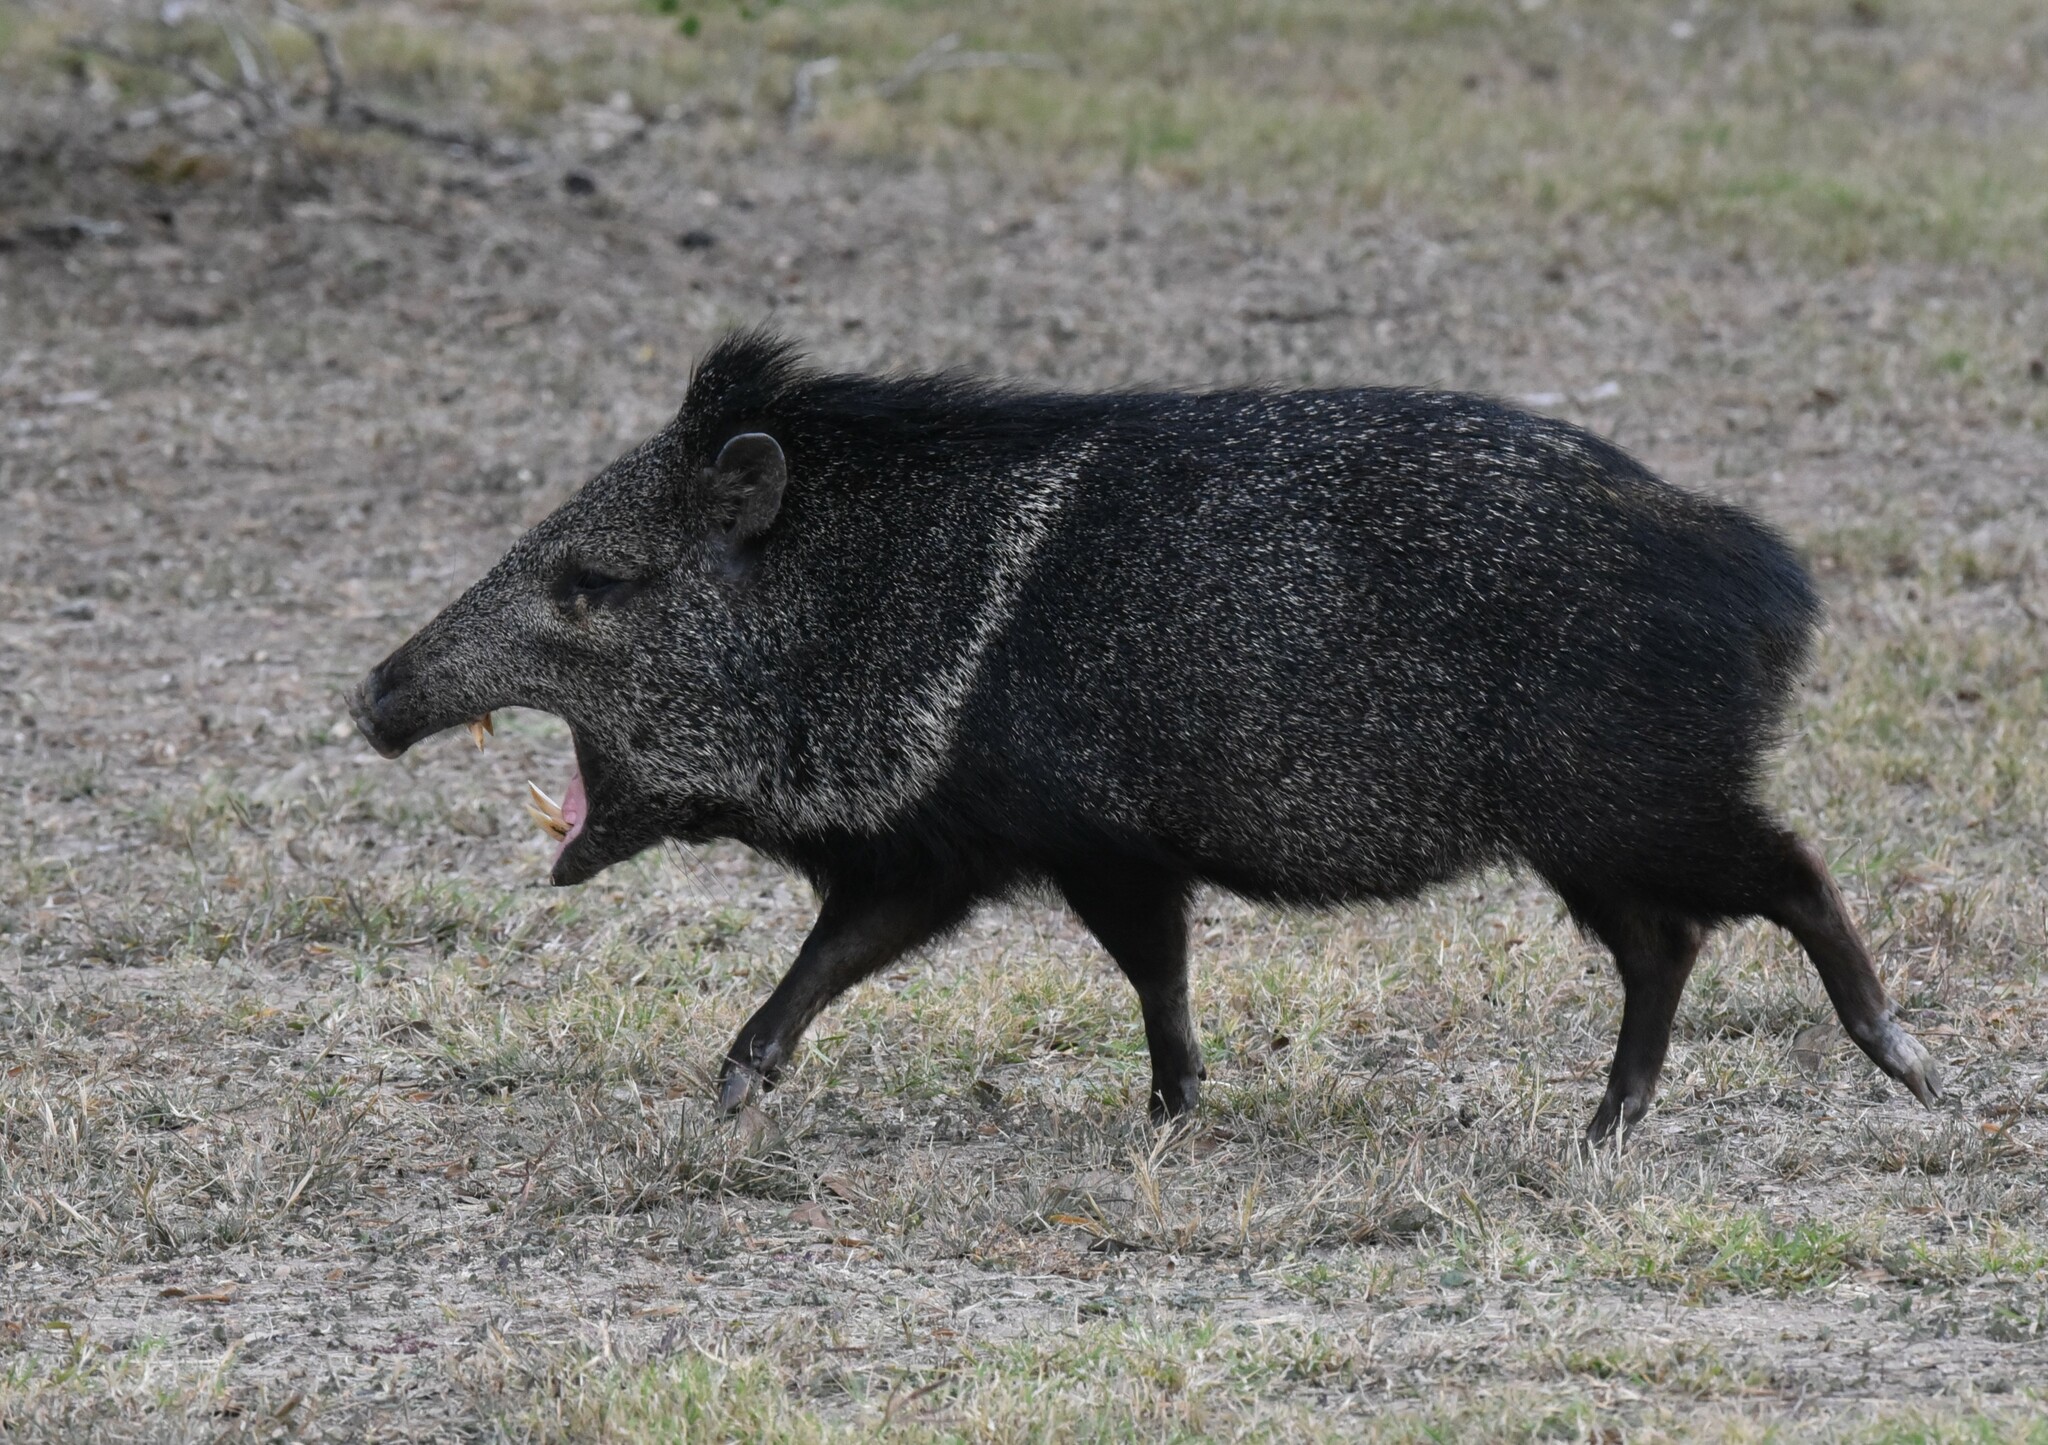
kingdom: Animalia
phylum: Chordata
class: Mammalia
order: Artiodactyla
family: Tayassuidae
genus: Pecari
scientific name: Pecari tajacu
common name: Collared peccary
